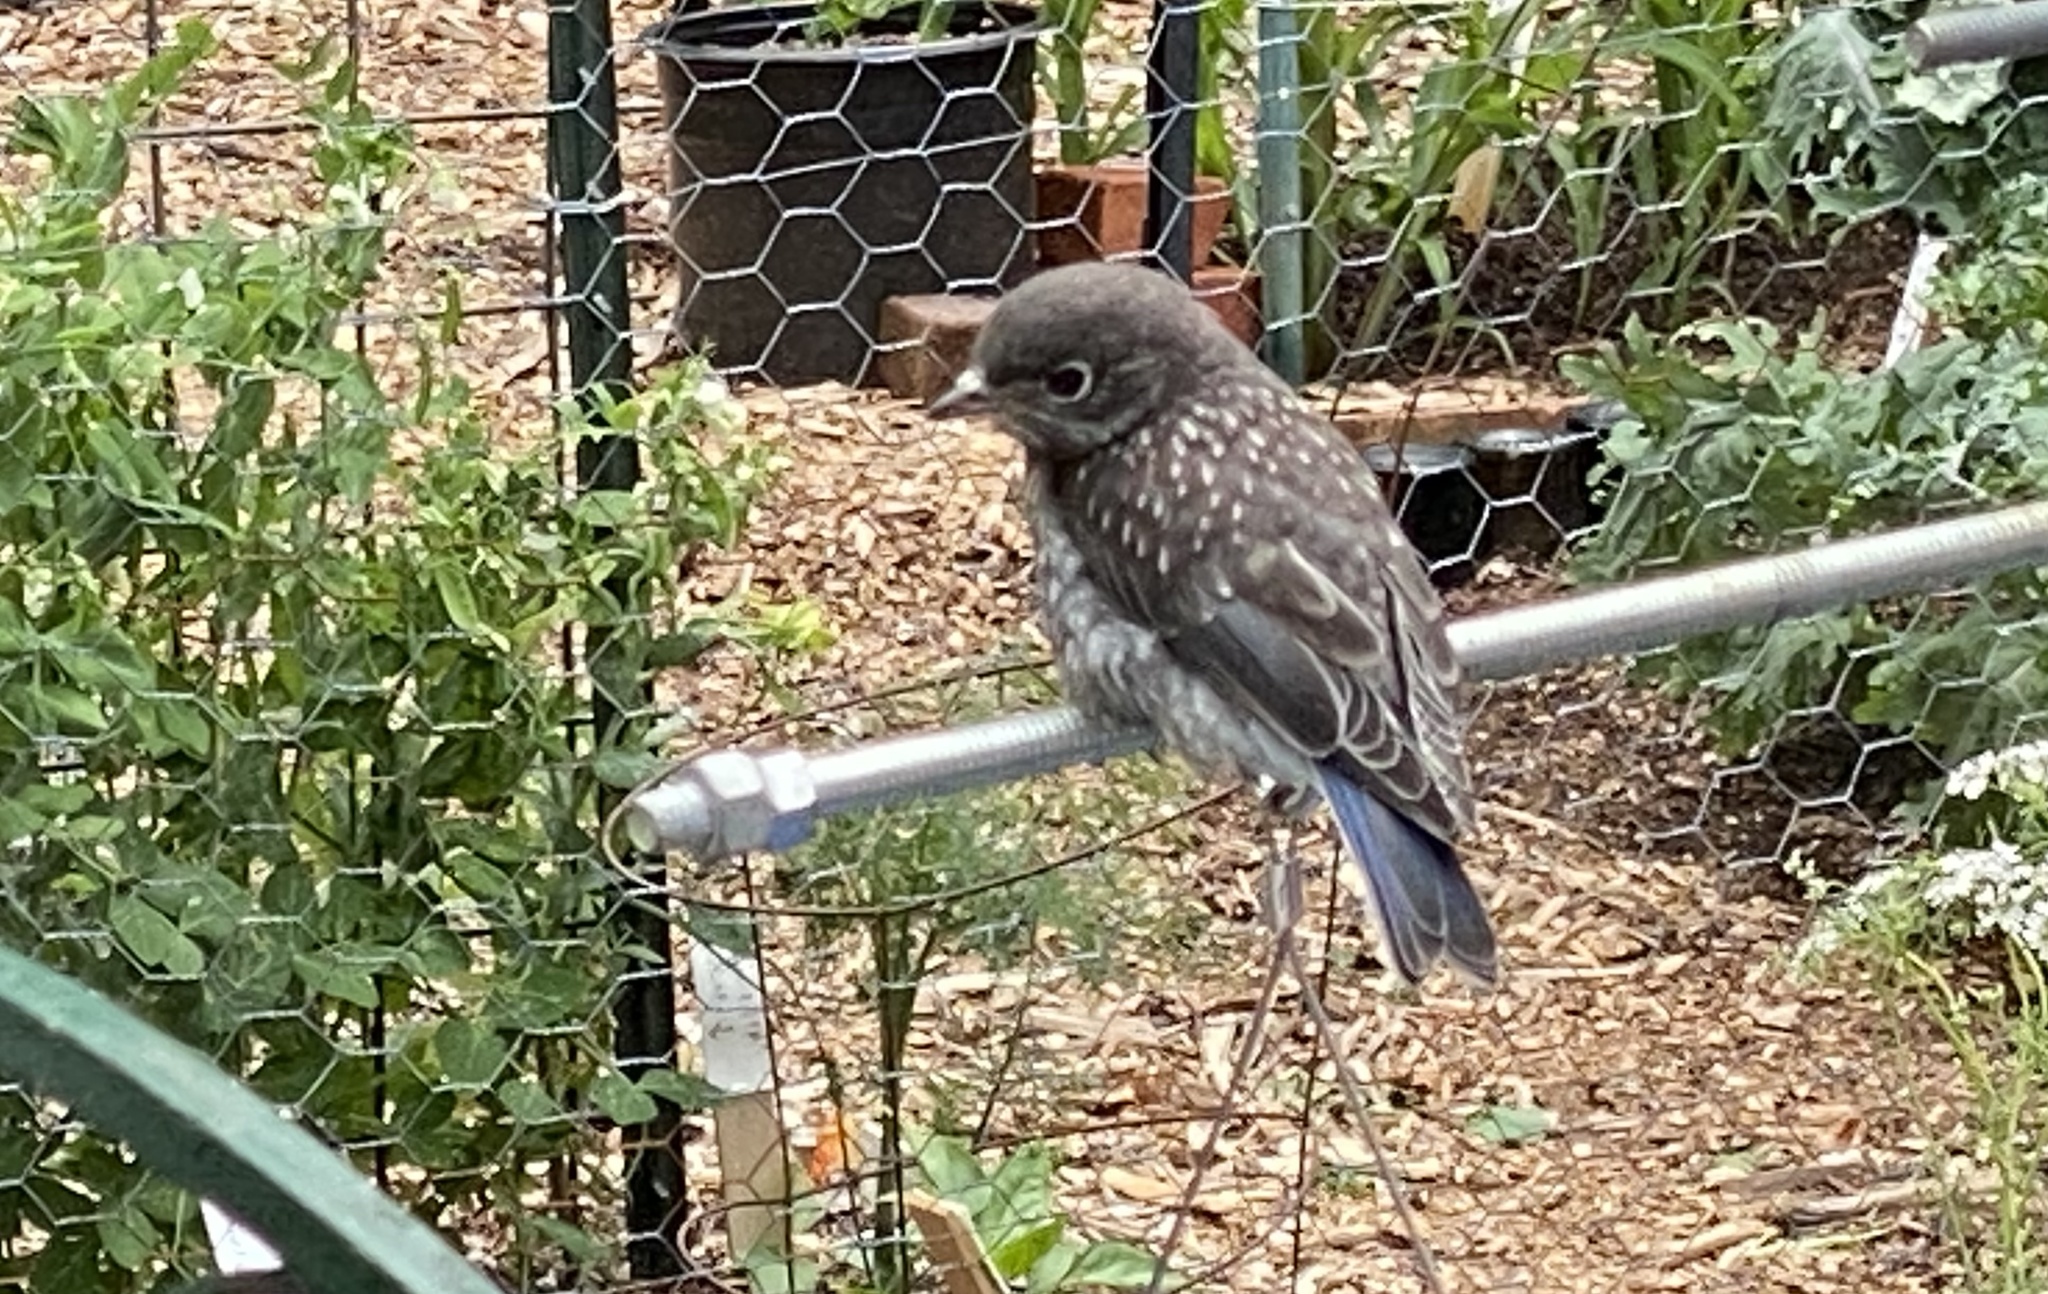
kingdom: Animalia
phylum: Chordata
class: Aves
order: Passeriformes
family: Turdidae
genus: Sialia
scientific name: Sialia sialis
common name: Eastern bluebird
